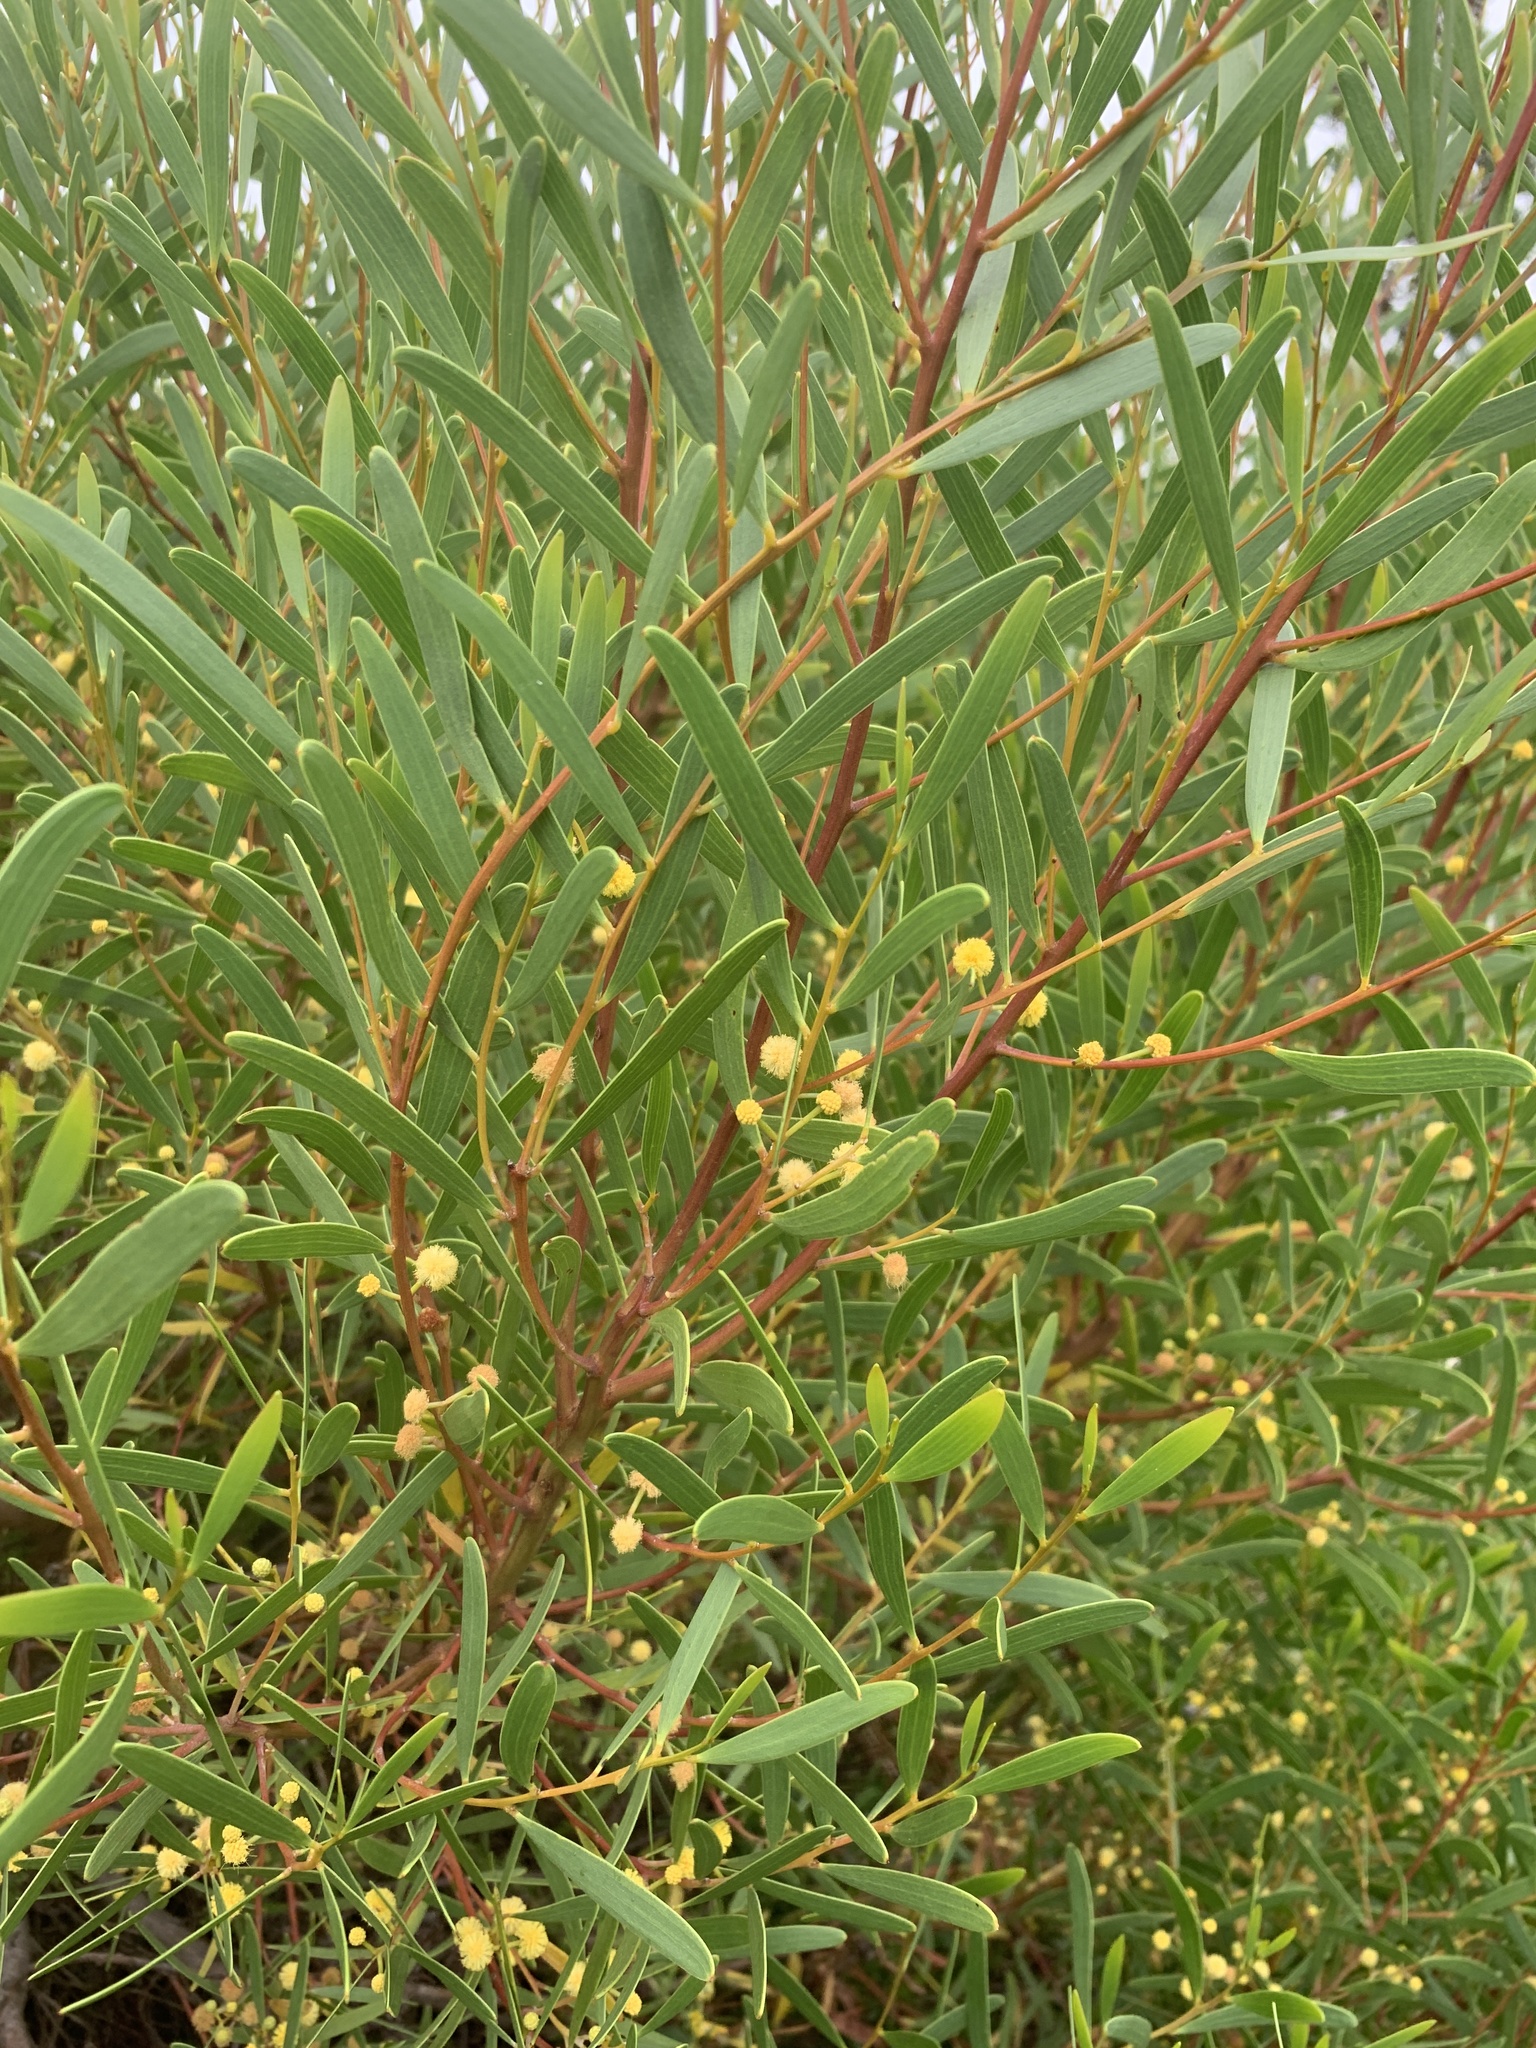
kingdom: Plantae
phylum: Tracheophyta
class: Magnoliopsida
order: Fabales
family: Fabaceae
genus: Acacia
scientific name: Acacia cyclops
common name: Coastal wattle
